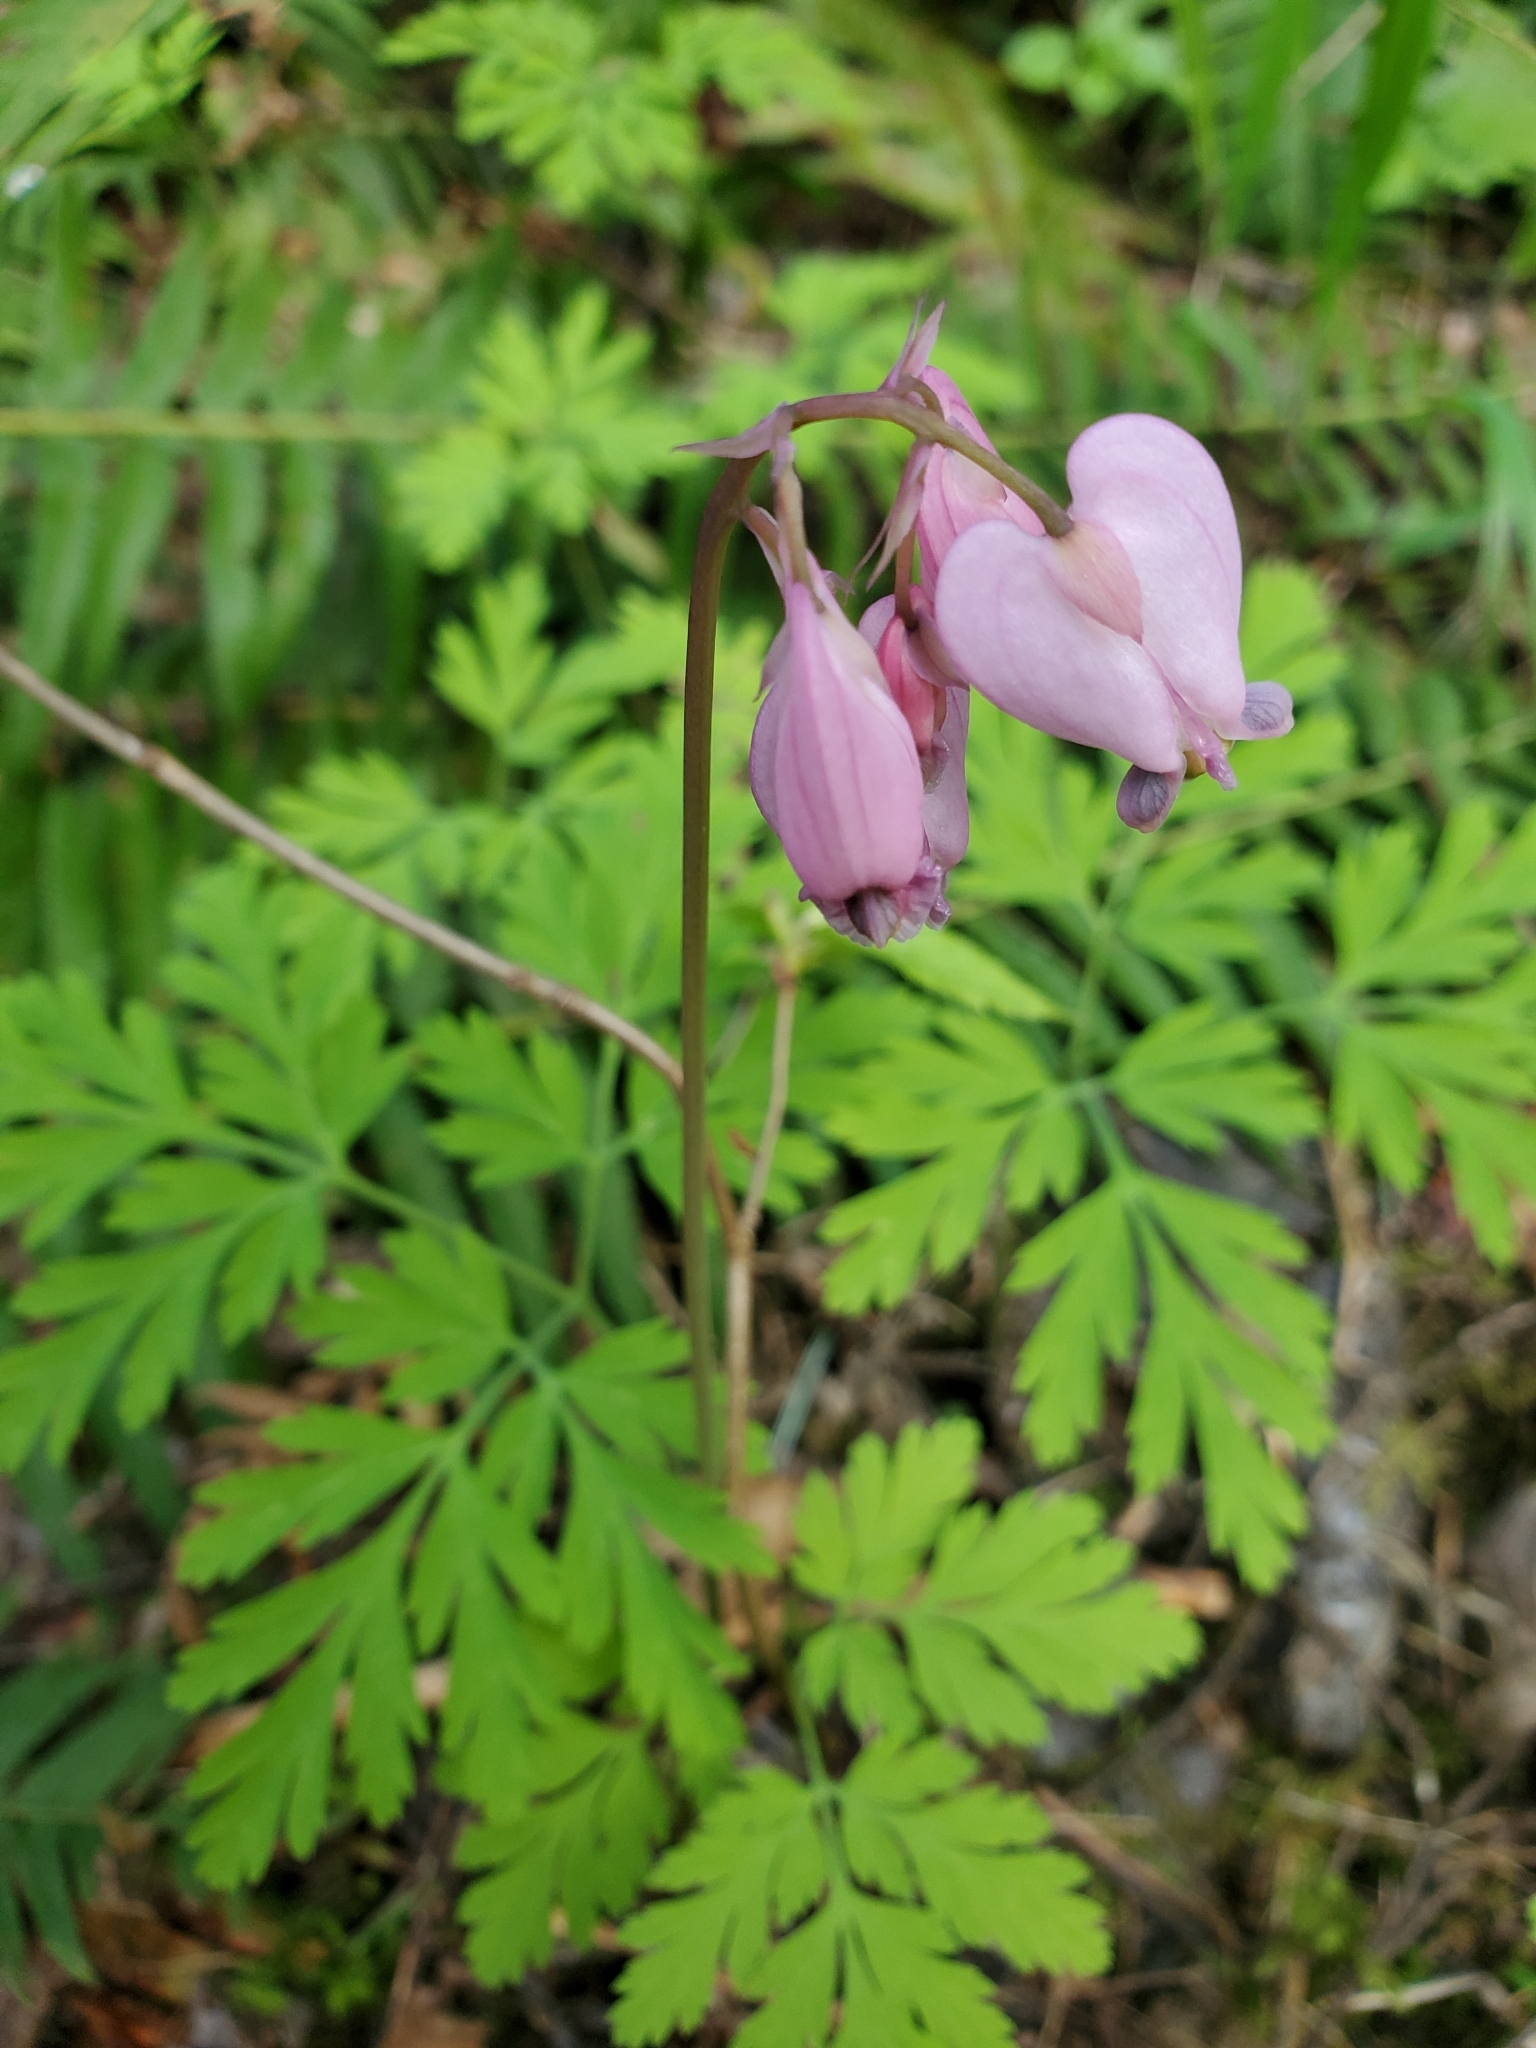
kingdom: Plantae
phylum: Tracheophyta
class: Magnoliopsida
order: Ranunculales
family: Papaveraceae
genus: Dicentra
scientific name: Dicentra formosa
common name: Bleeding-heart
